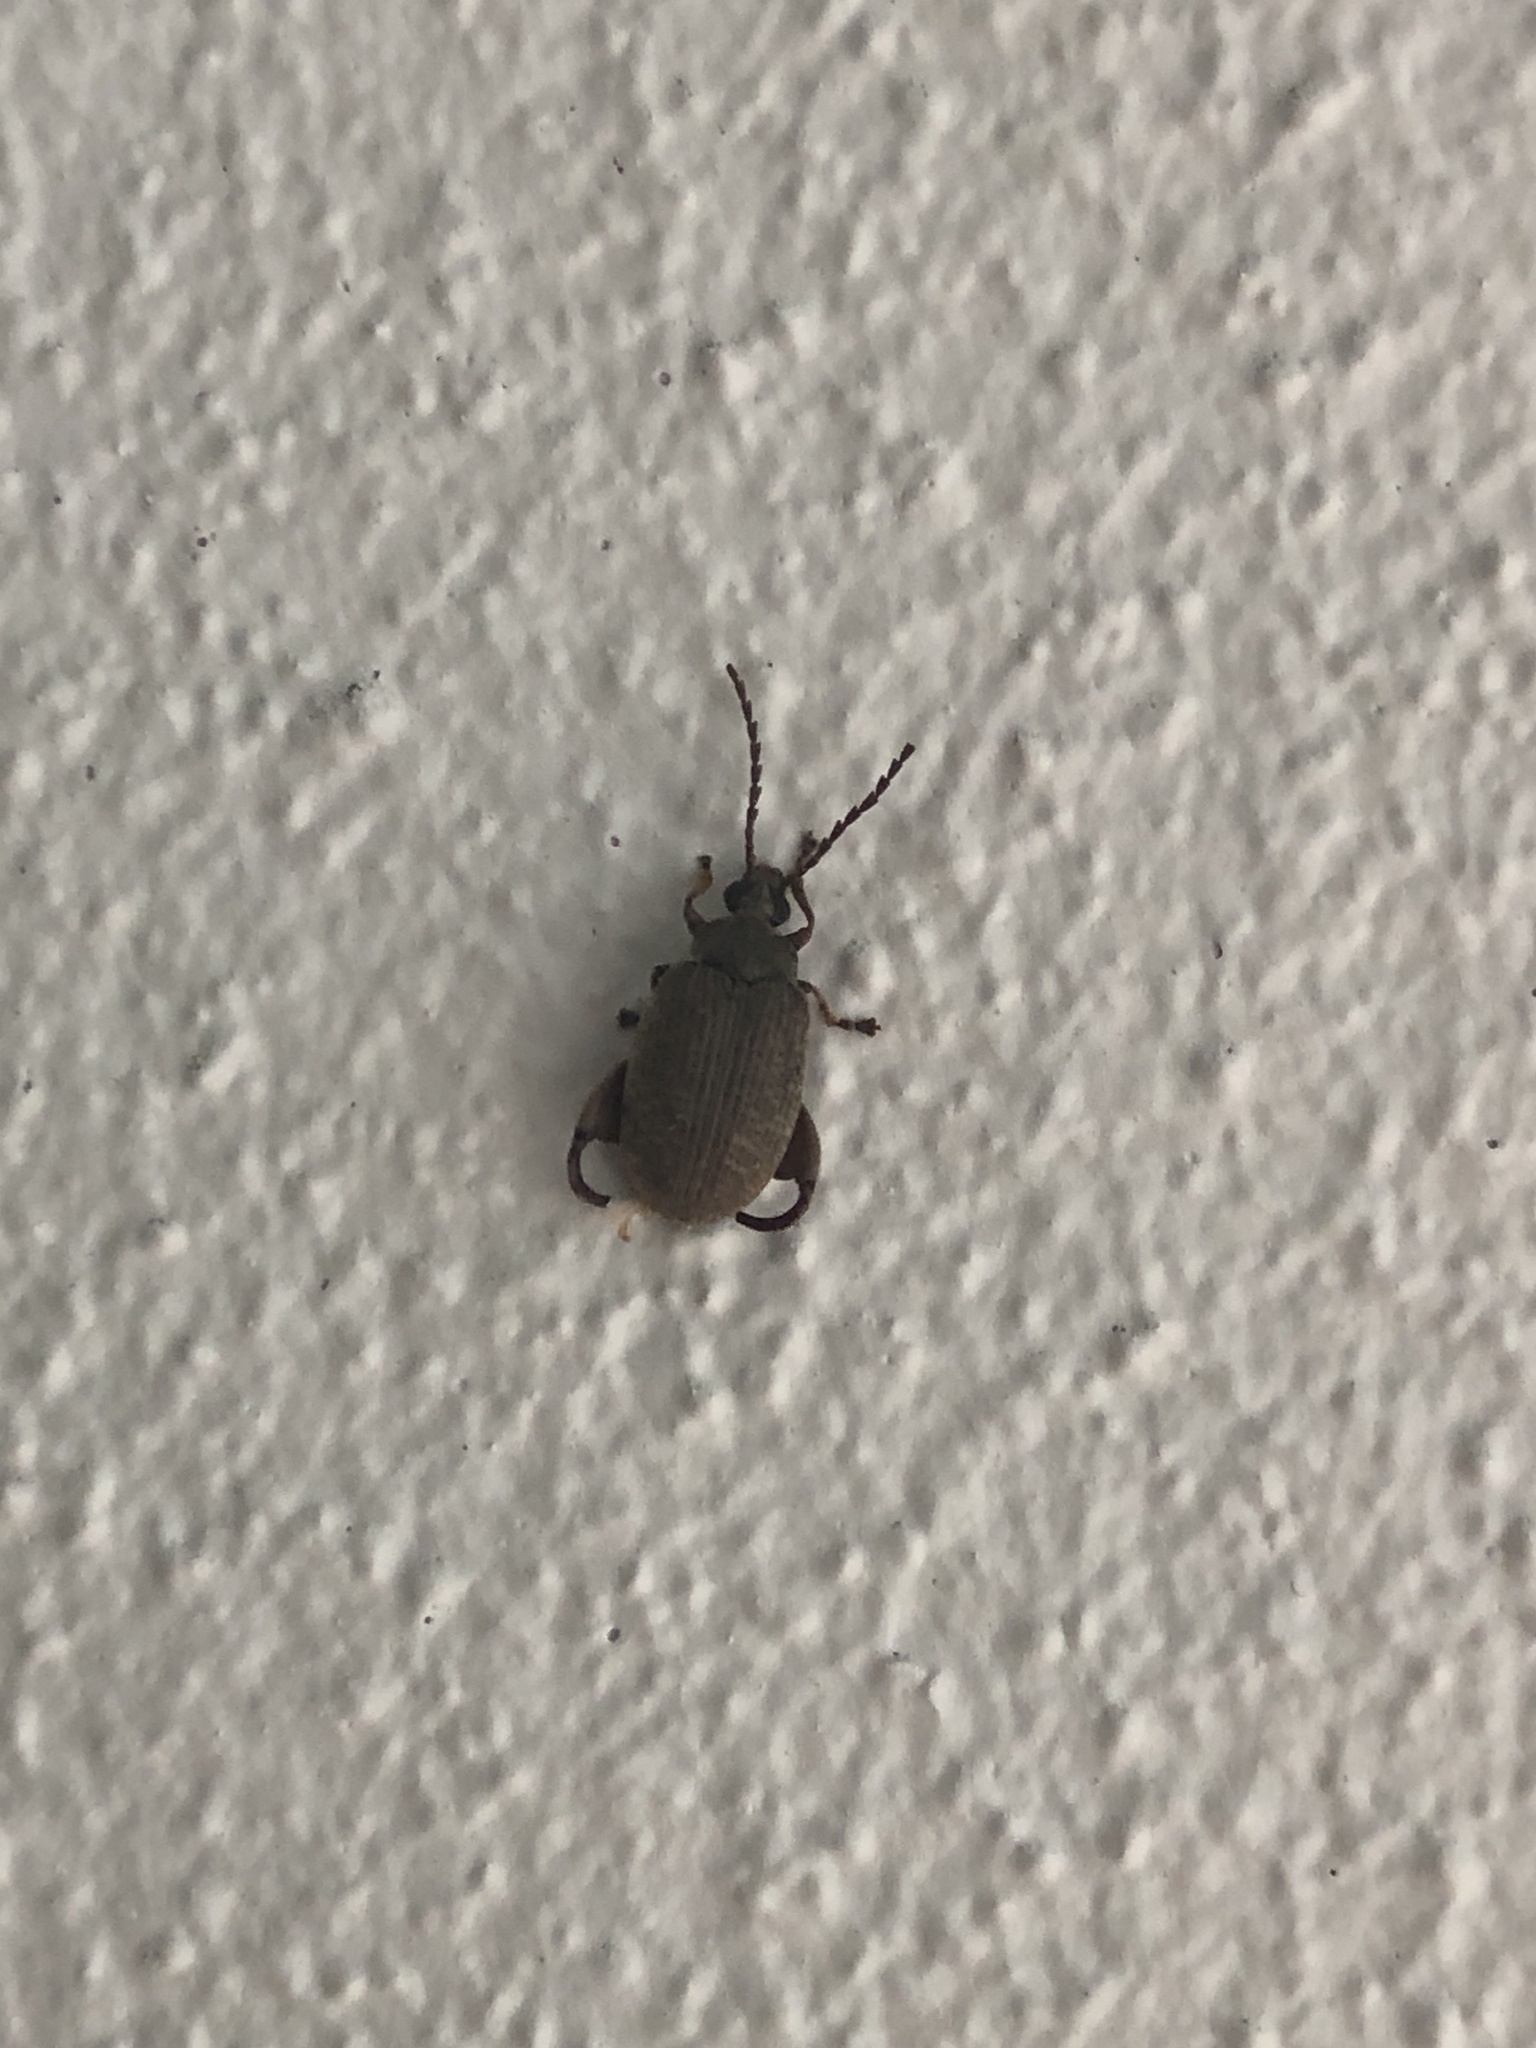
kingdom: Animalia
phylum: Arthropoda
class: Insecta
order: Coleoptera
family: Chrysomelidae
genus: Caryobruchus
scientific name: Caryobruchus gleditsiae
